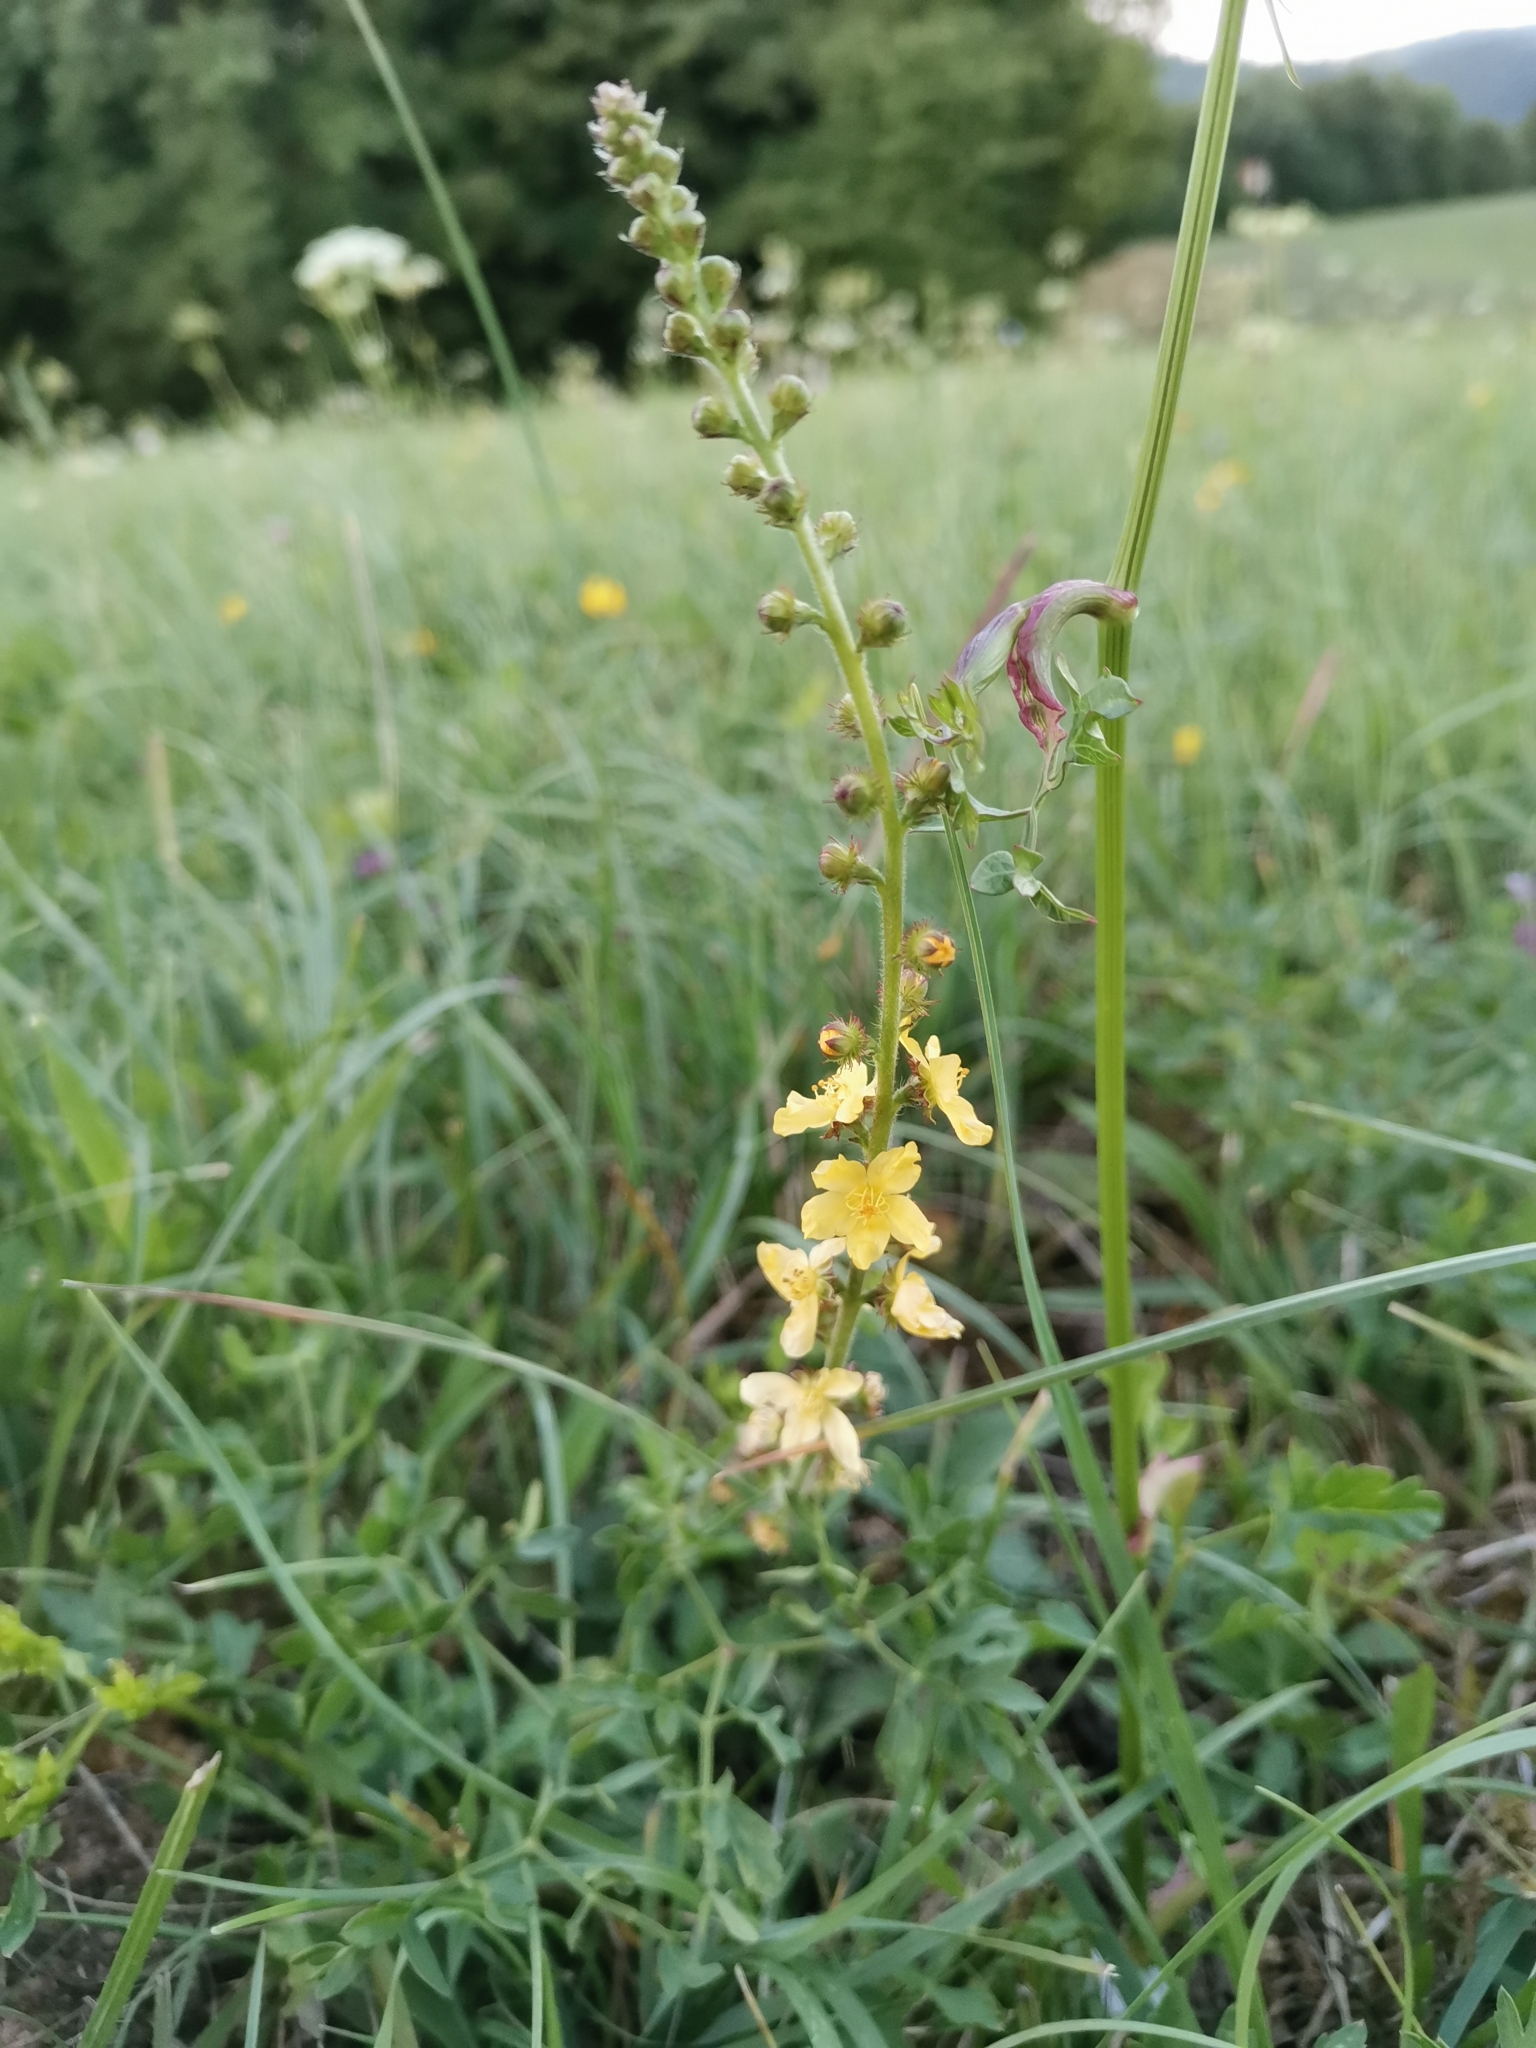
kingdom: Plantae
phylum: Tracheophyta
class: Magnoliopsida
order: Rosales
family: Rosaceae
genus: Agrimonia
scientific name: Agrimonia eupatoria
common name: Agrimony
